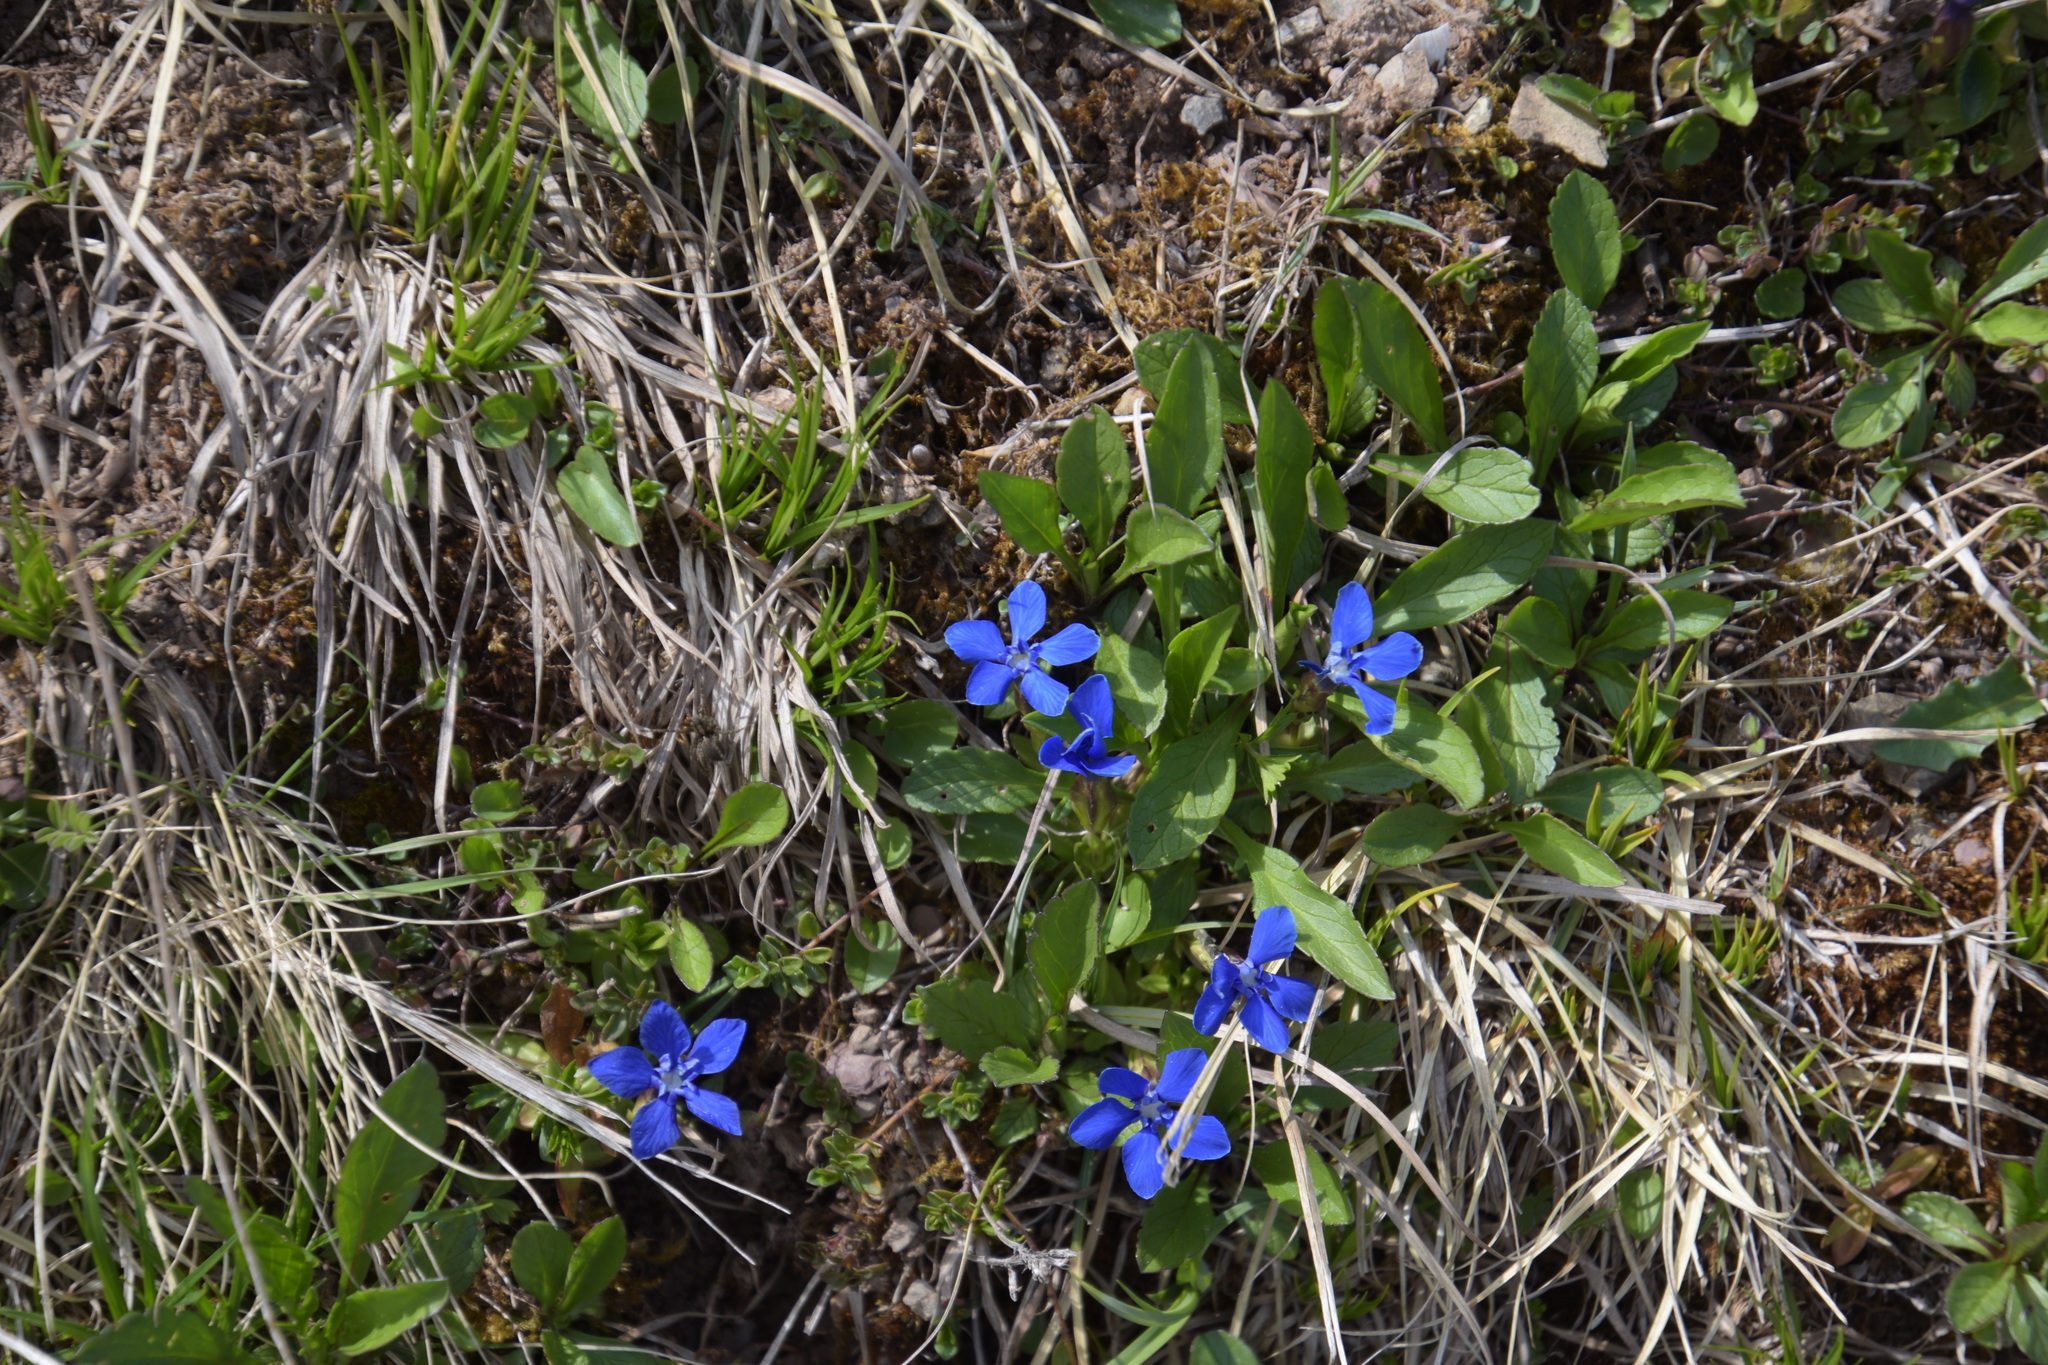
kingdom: Plantae
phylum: Tracheophyta
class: Magnoliopsida
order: Gentianales
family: Gentianaceae
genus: Gentiana
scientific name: Gentiana verna
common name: Spring gentian
